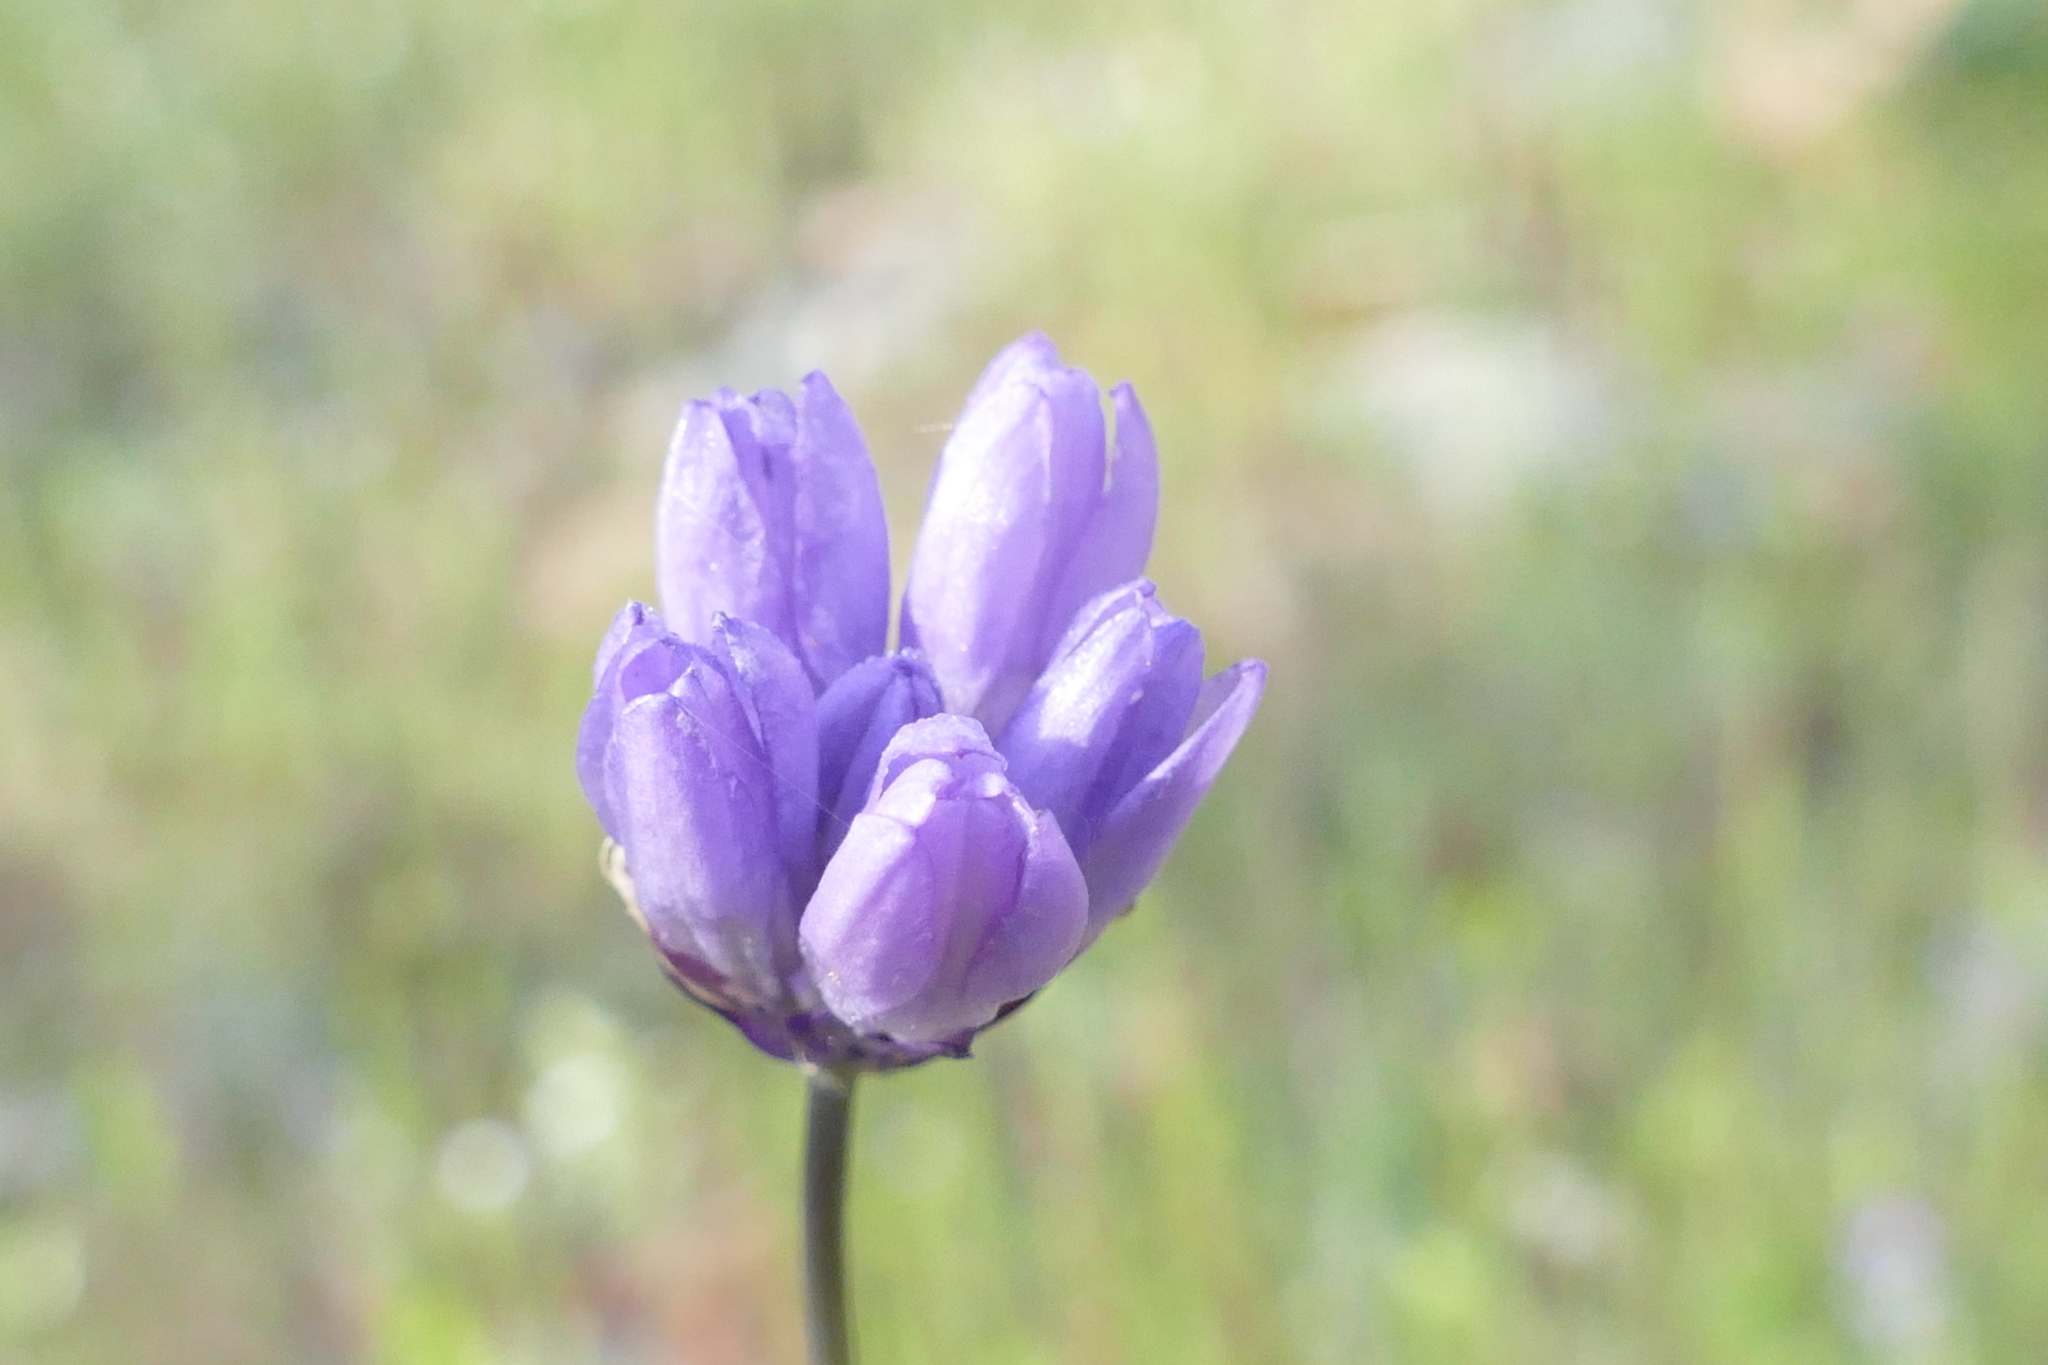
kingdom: Plantae
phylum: Tracheophyta
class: Liliopsida
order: Asparagales
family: Asparagaceae
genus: Dipterostemon
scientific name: Dipterostemon capitatus
